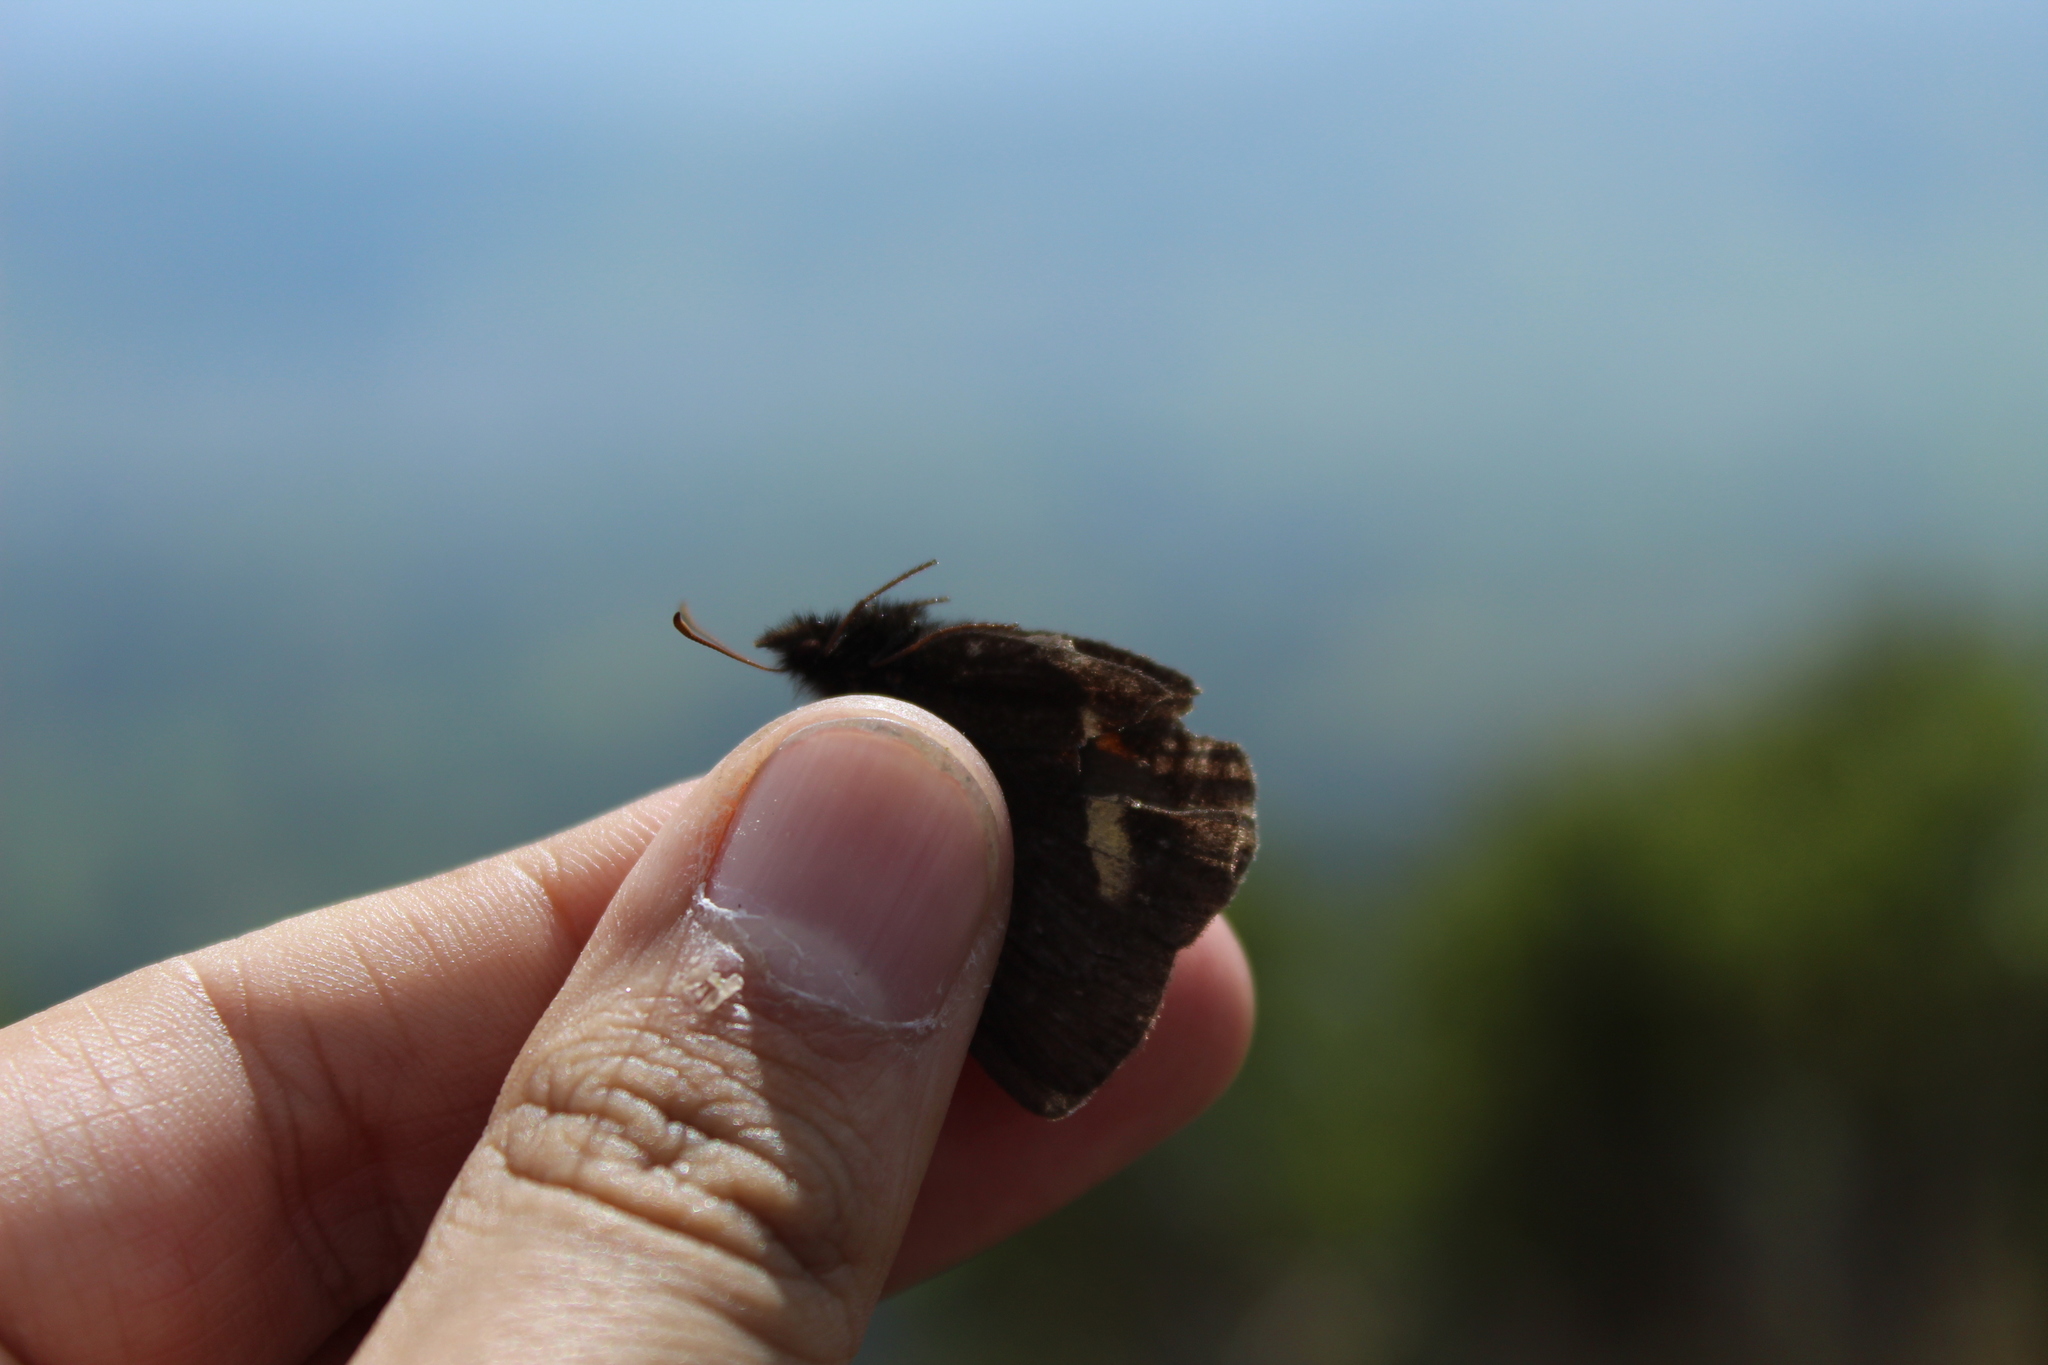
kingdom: Animalia
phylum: Arthropoda
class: Insecta
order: Lepidoptera
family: Nymphalidae
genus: Altopedaliodes
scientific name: Altopedaliodes nebris
